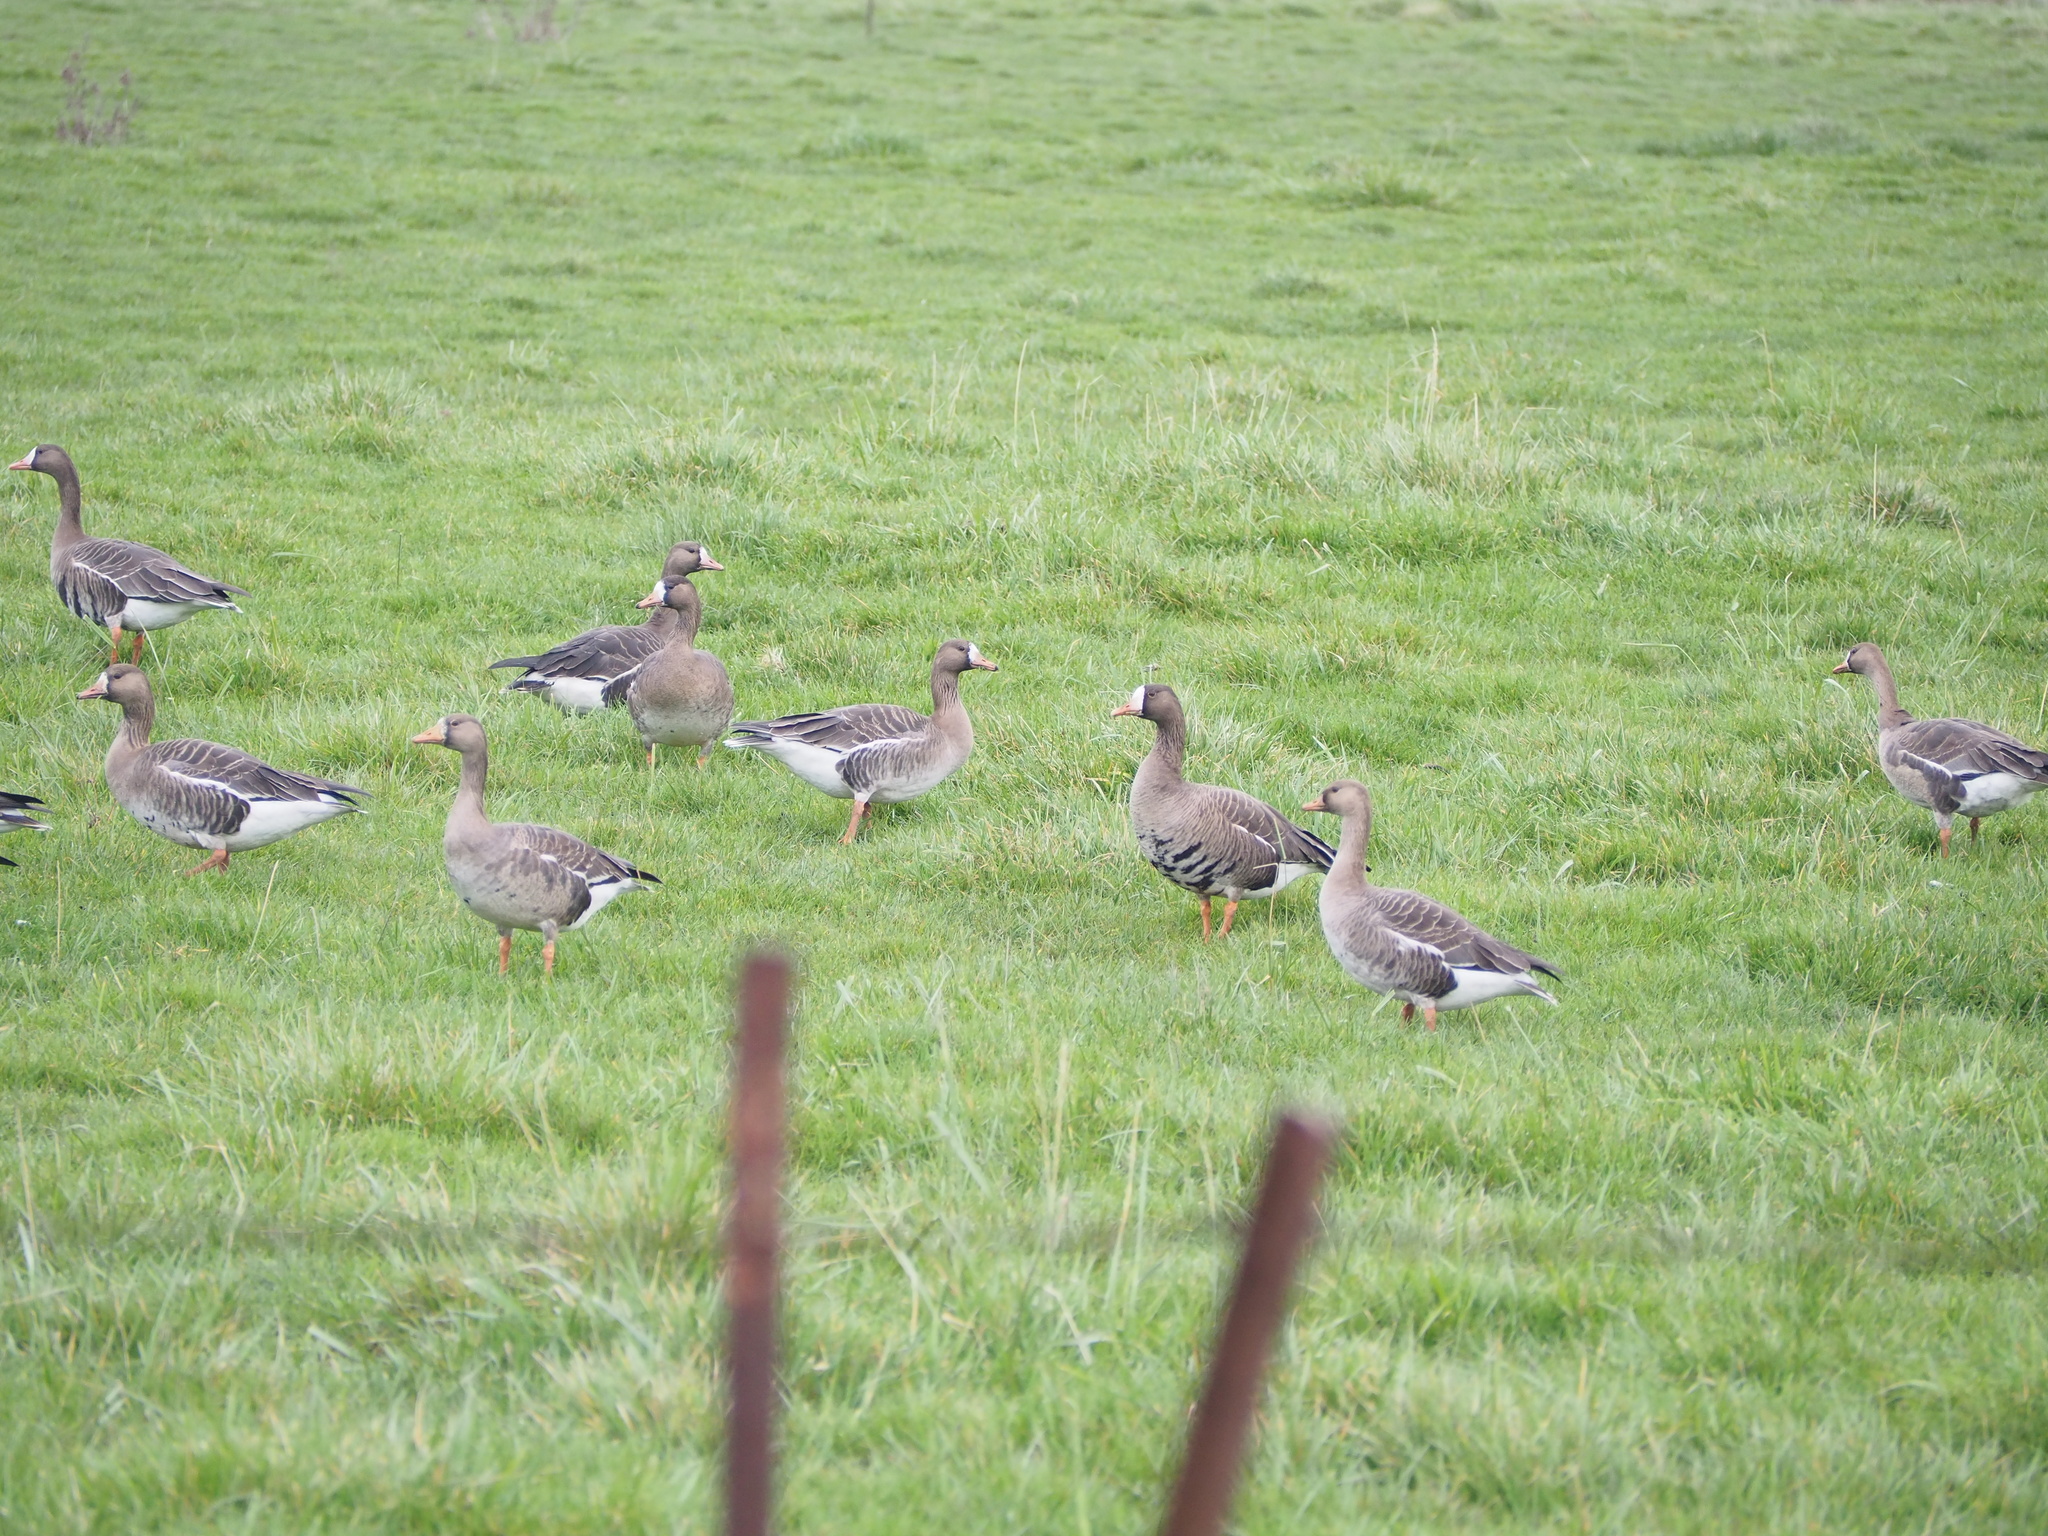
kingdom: Animalia
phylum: Chordata
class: Aves
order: Anseriformes
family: Anatidae
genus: Anser
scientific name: Anser albifrons
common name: Greater white-fronted goose
